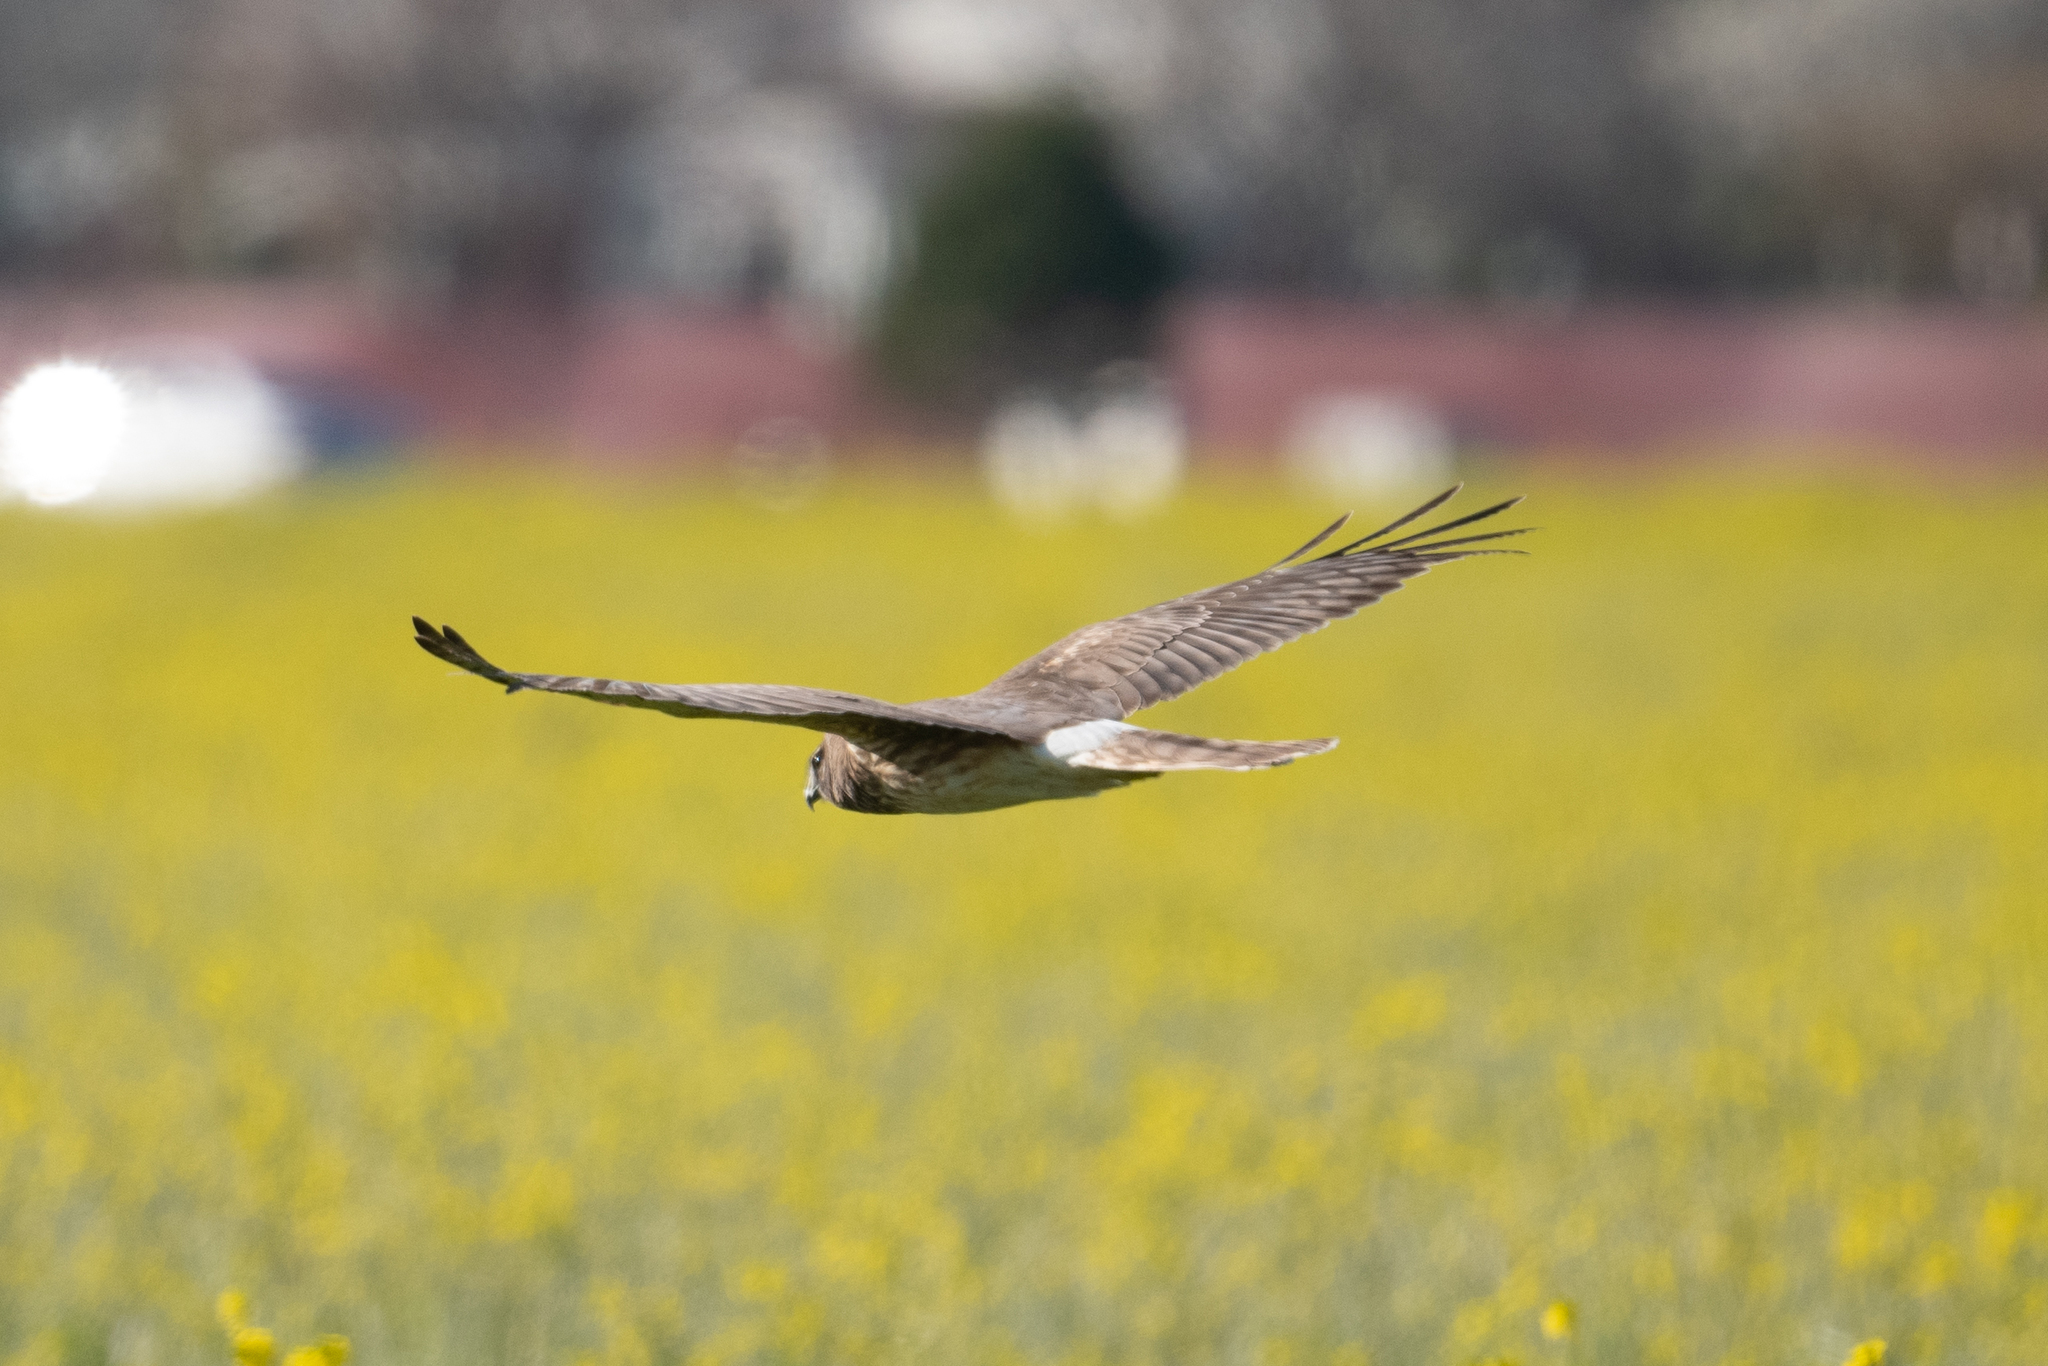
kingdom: Animalia
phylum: Chordata
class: Aves
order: Accipitriformes
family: Accipitridae
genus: Circus
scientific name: Circus cyaneus
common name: Hen harrier
